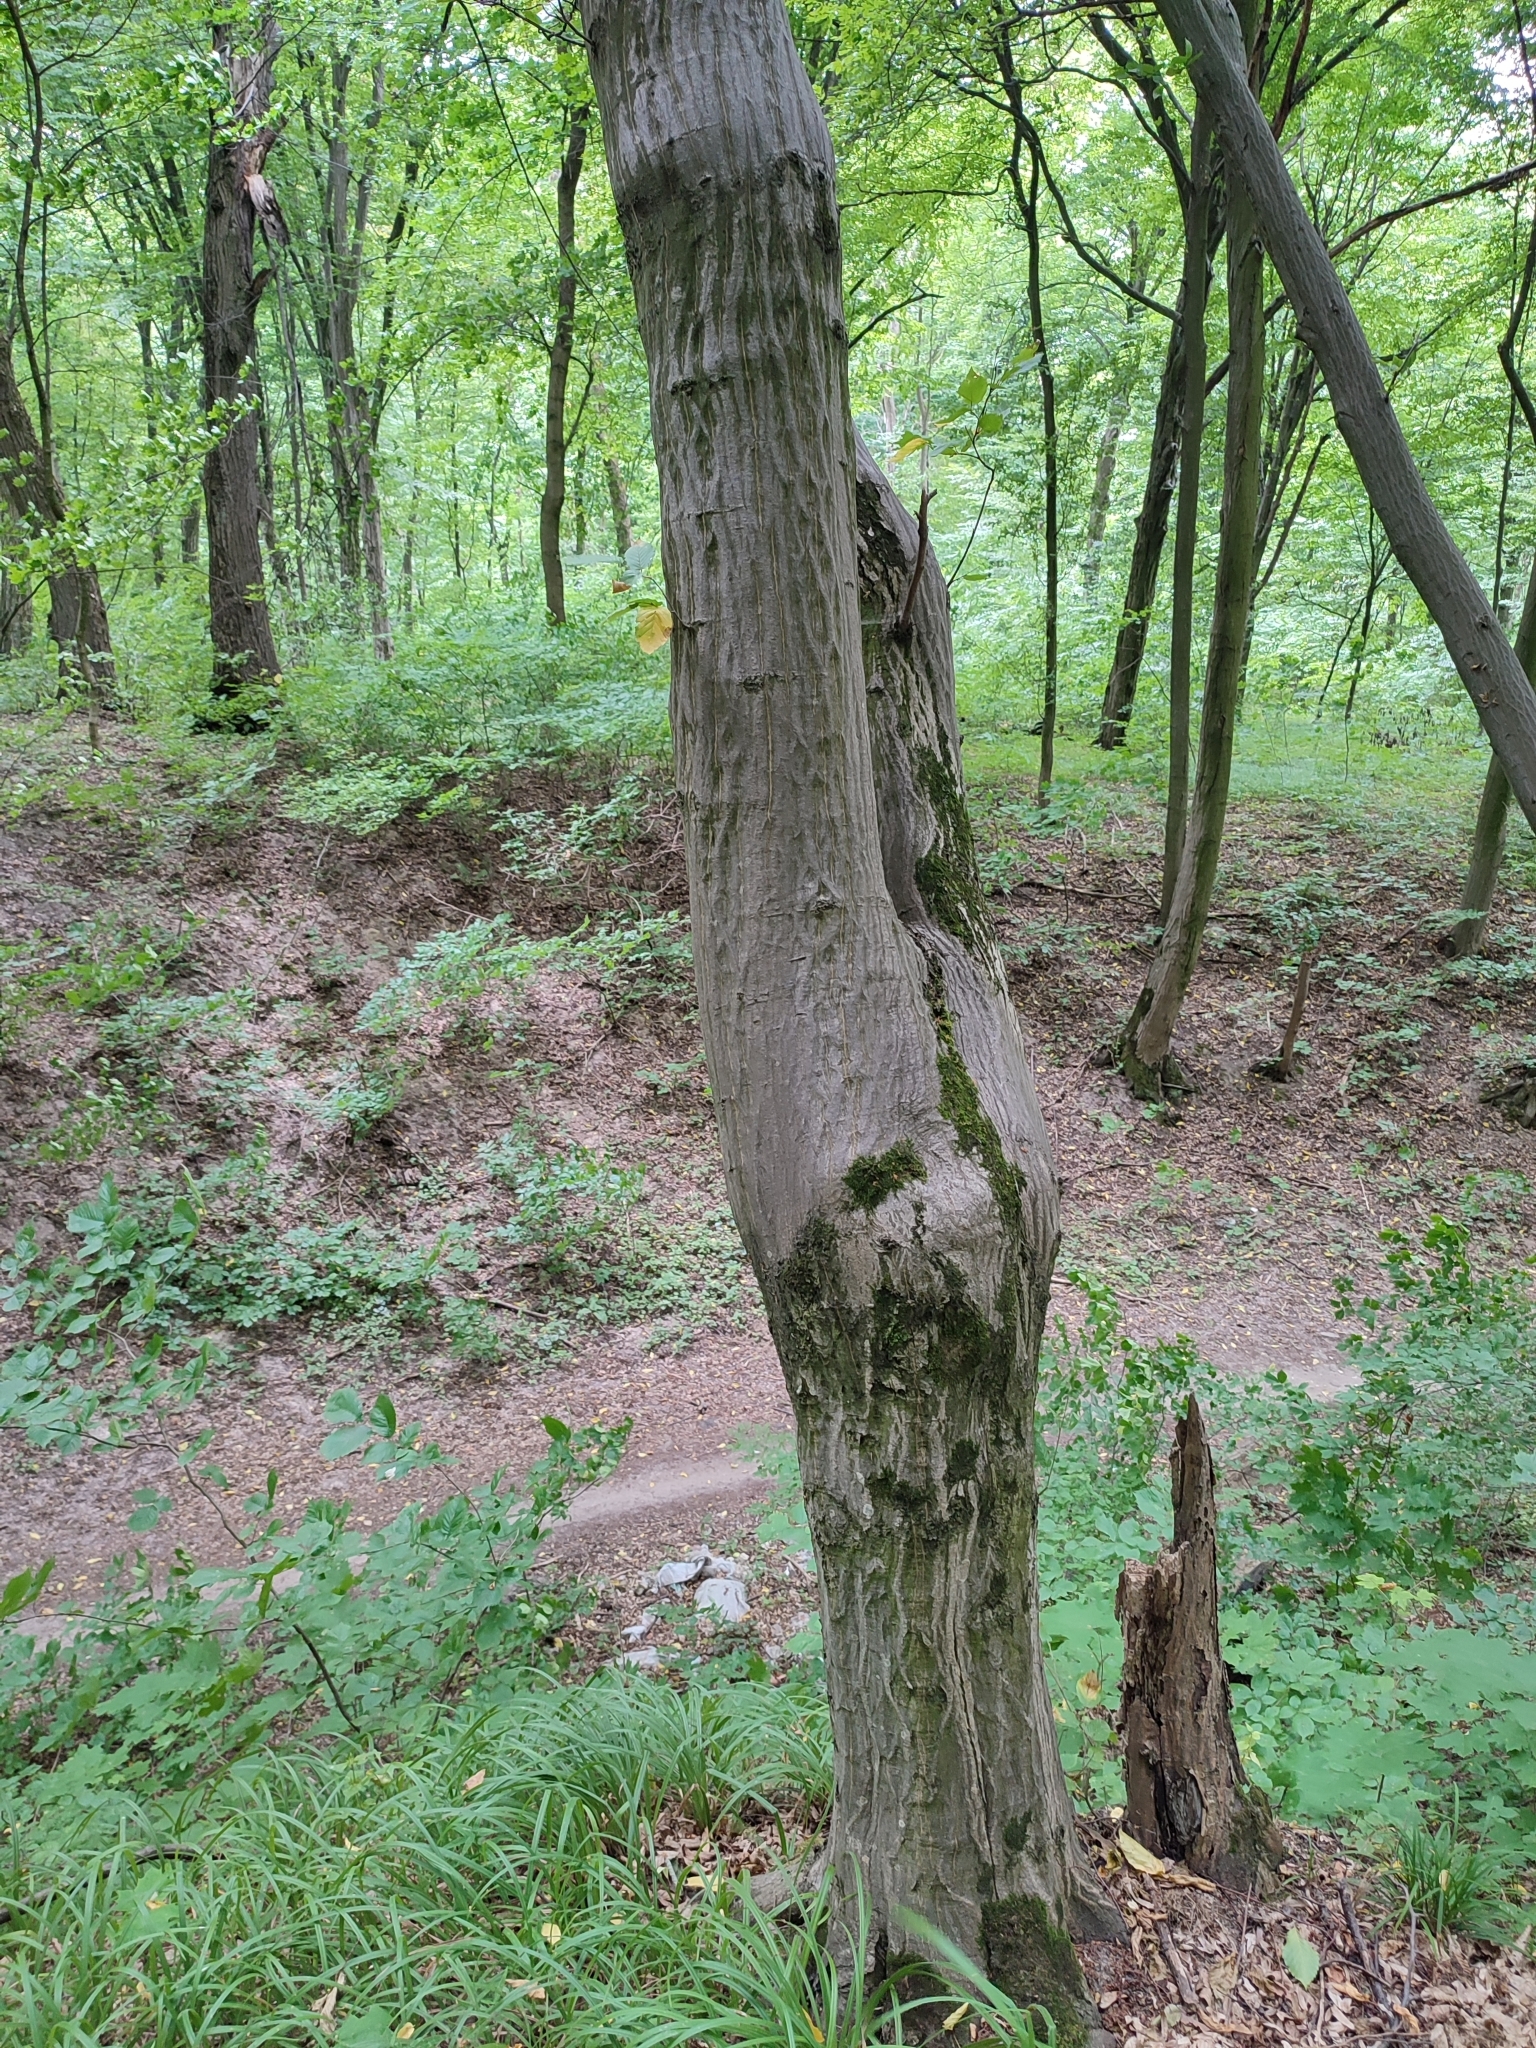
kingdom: Plantae
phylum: Tracheophyta
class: Magnoliopsida
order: Fagales
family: Betulaceae
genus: Carpinus
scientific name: Carpinus betulus
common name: Hornbeam
